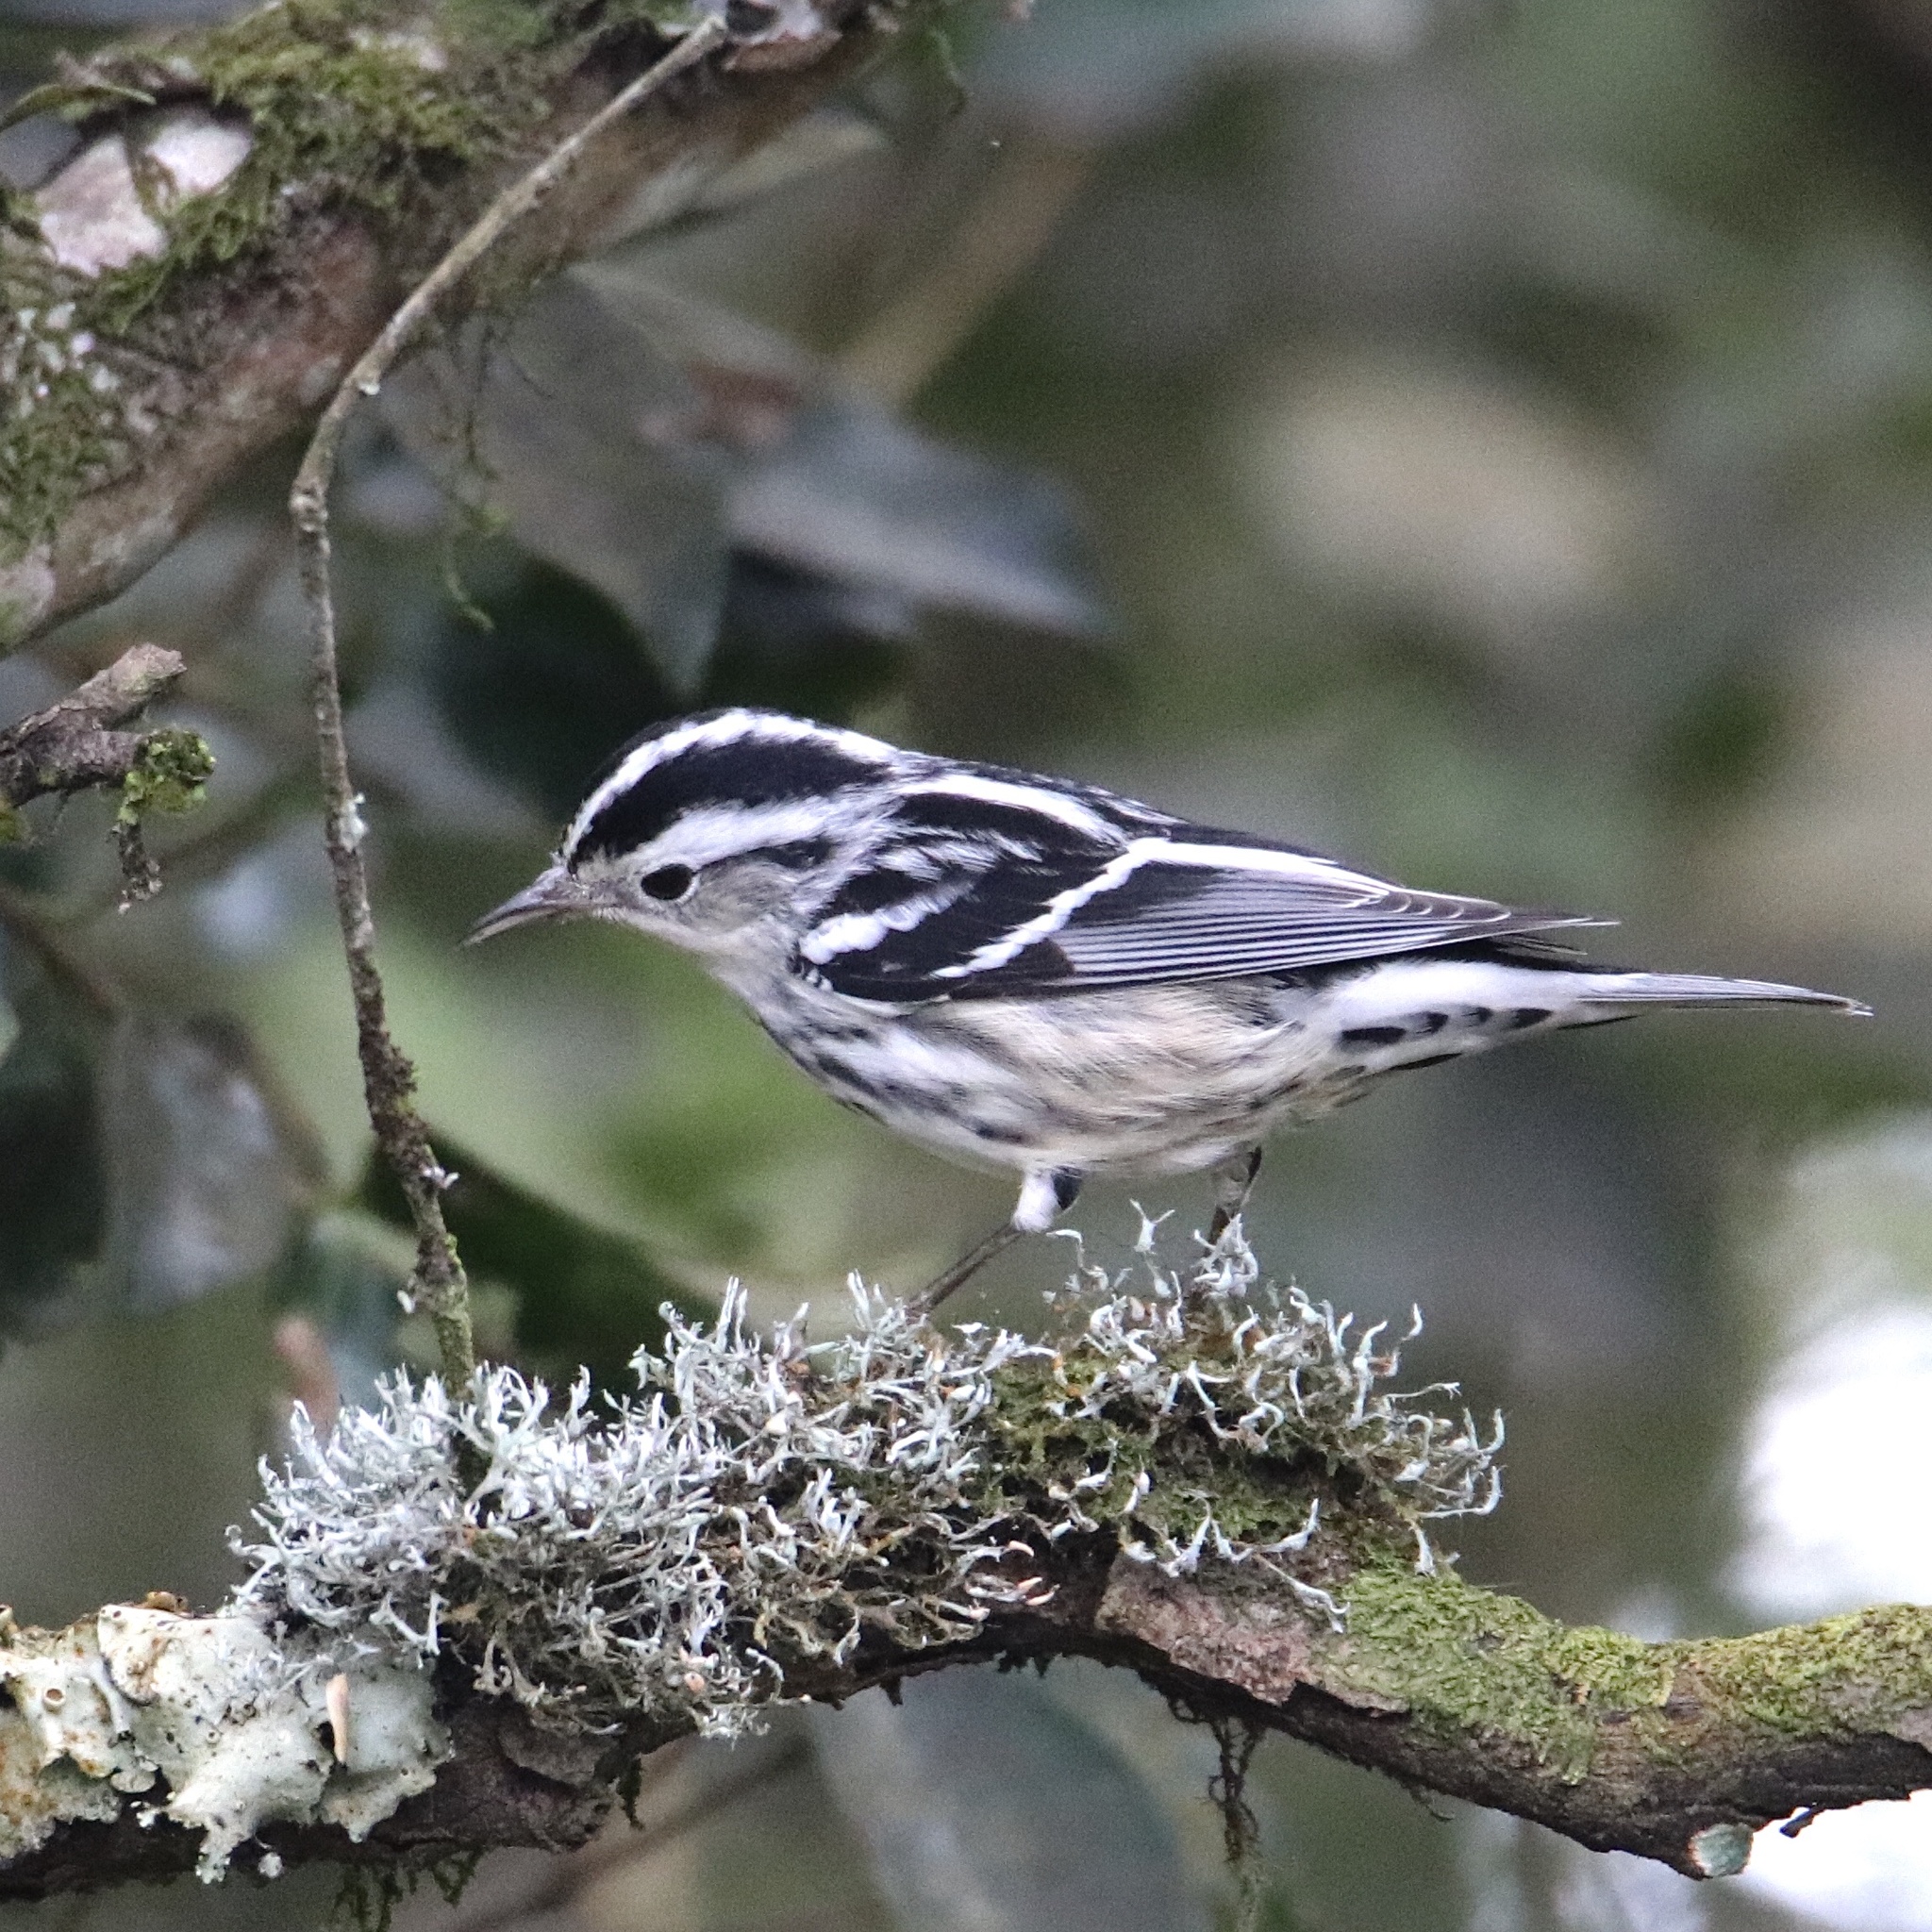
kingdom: Animalia
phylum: Chordata
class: Aves
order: Passeriformes
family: Parulidae
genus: Mniotilta
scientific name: Mniotilta varia
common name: Black-and-white warbler
